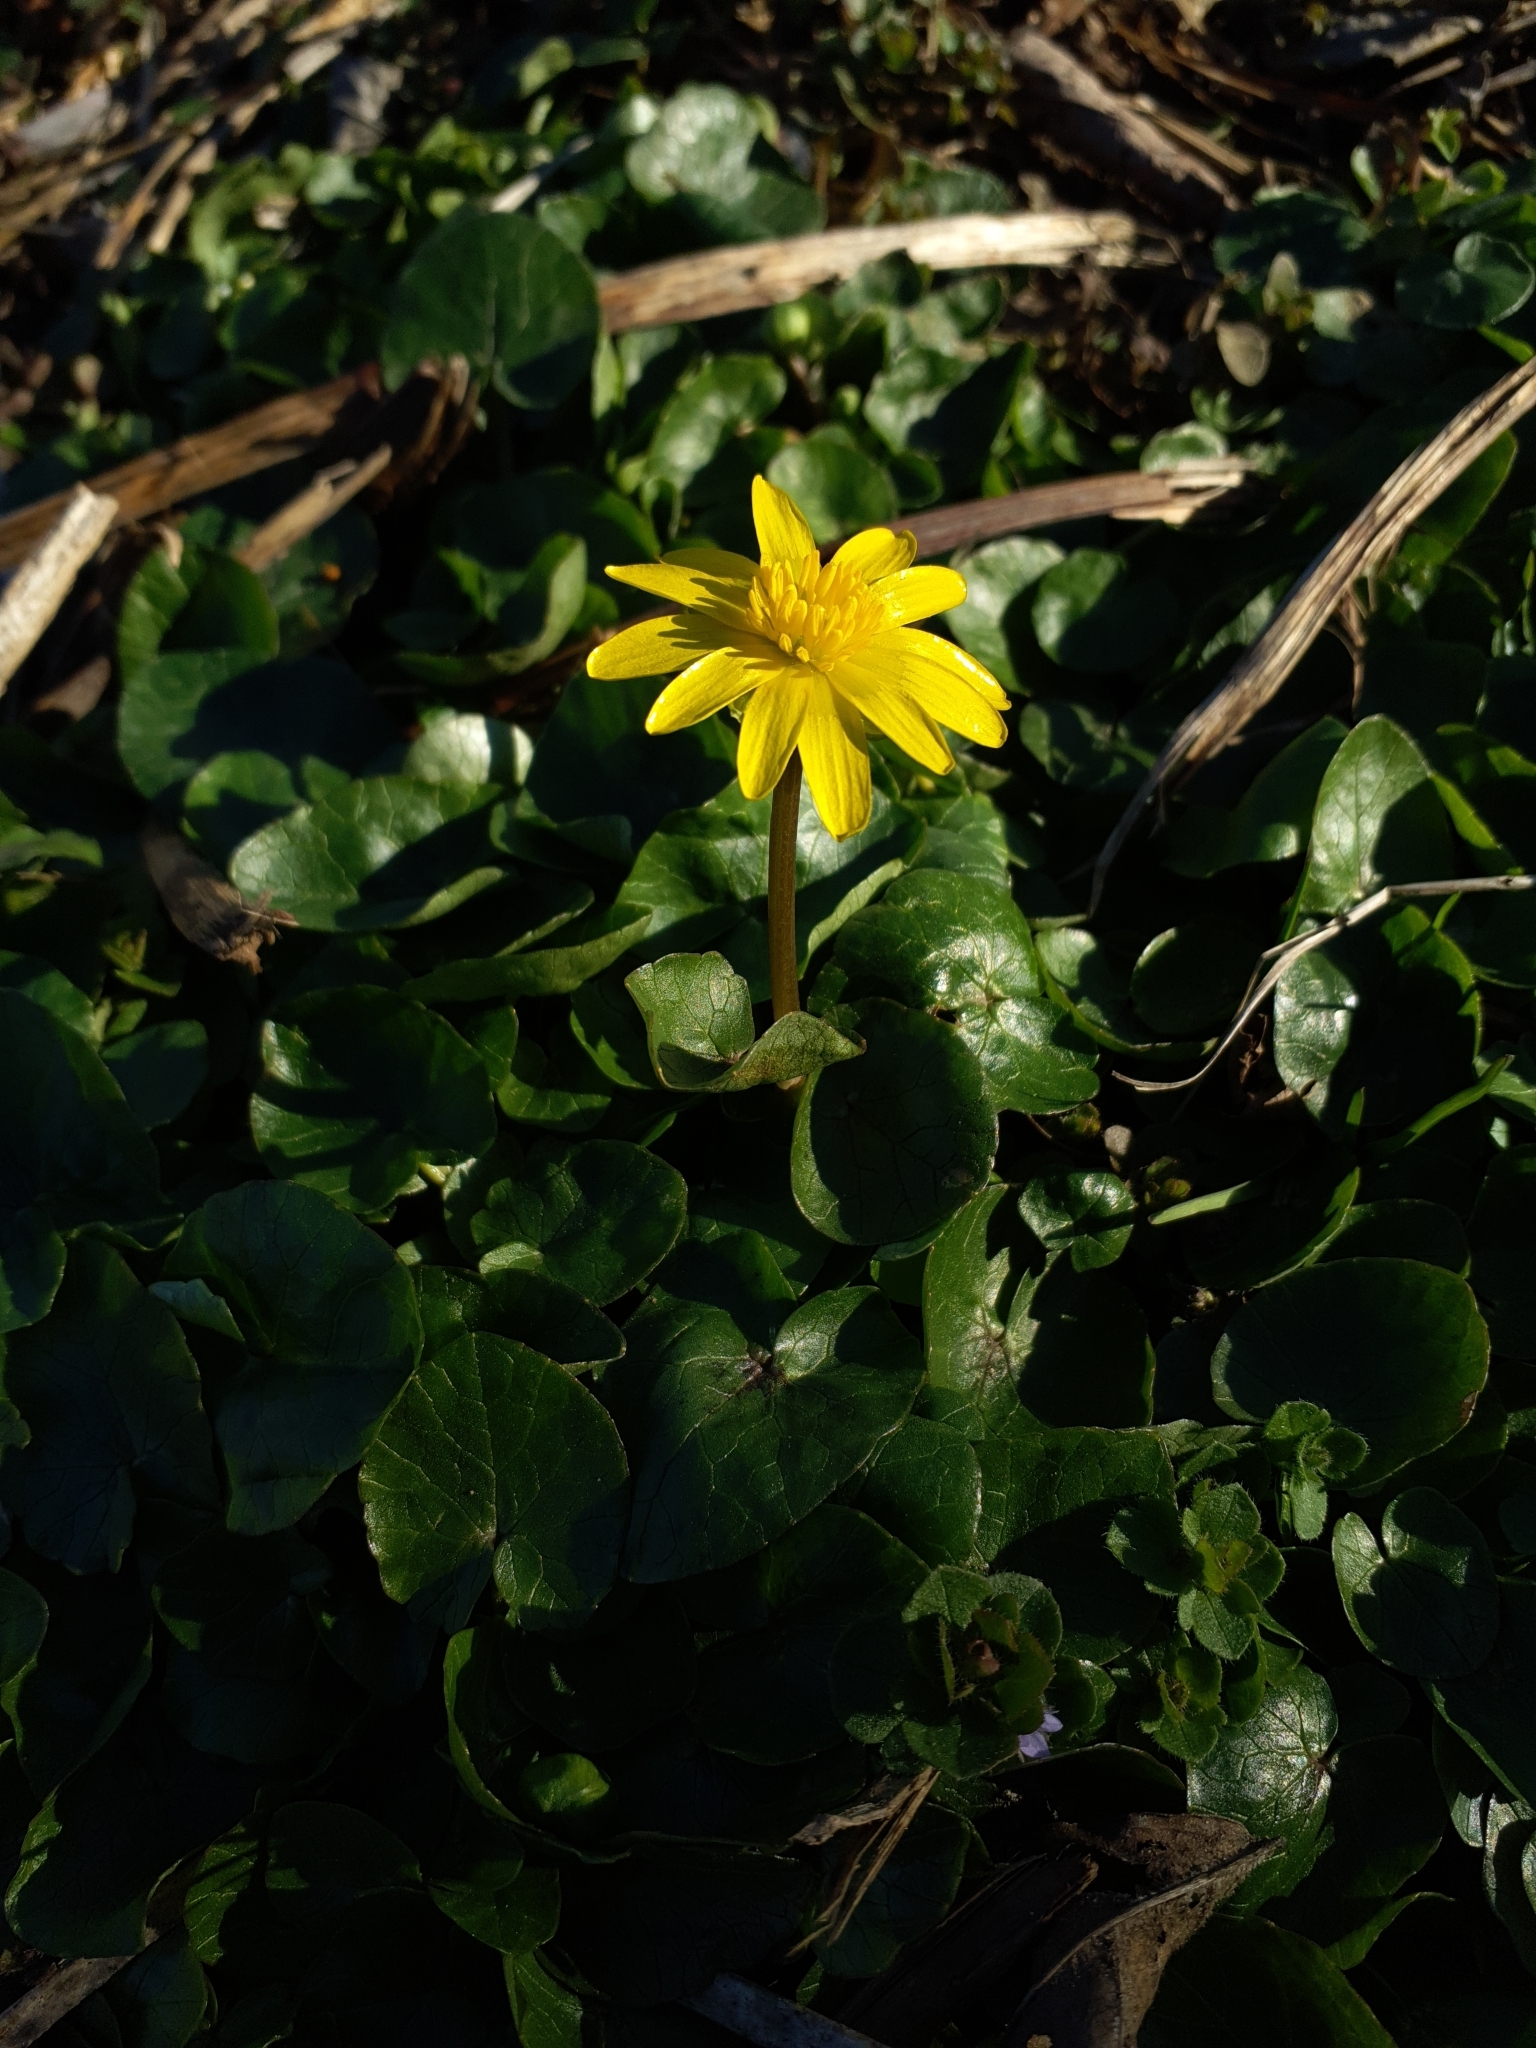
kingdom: Plantae
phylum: Tracheophyta
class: Magnoliopsida
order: Ranunculales
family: Ranunculaceae
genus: Ficaria
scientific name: Ficaria verna
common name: Lesser celandine
